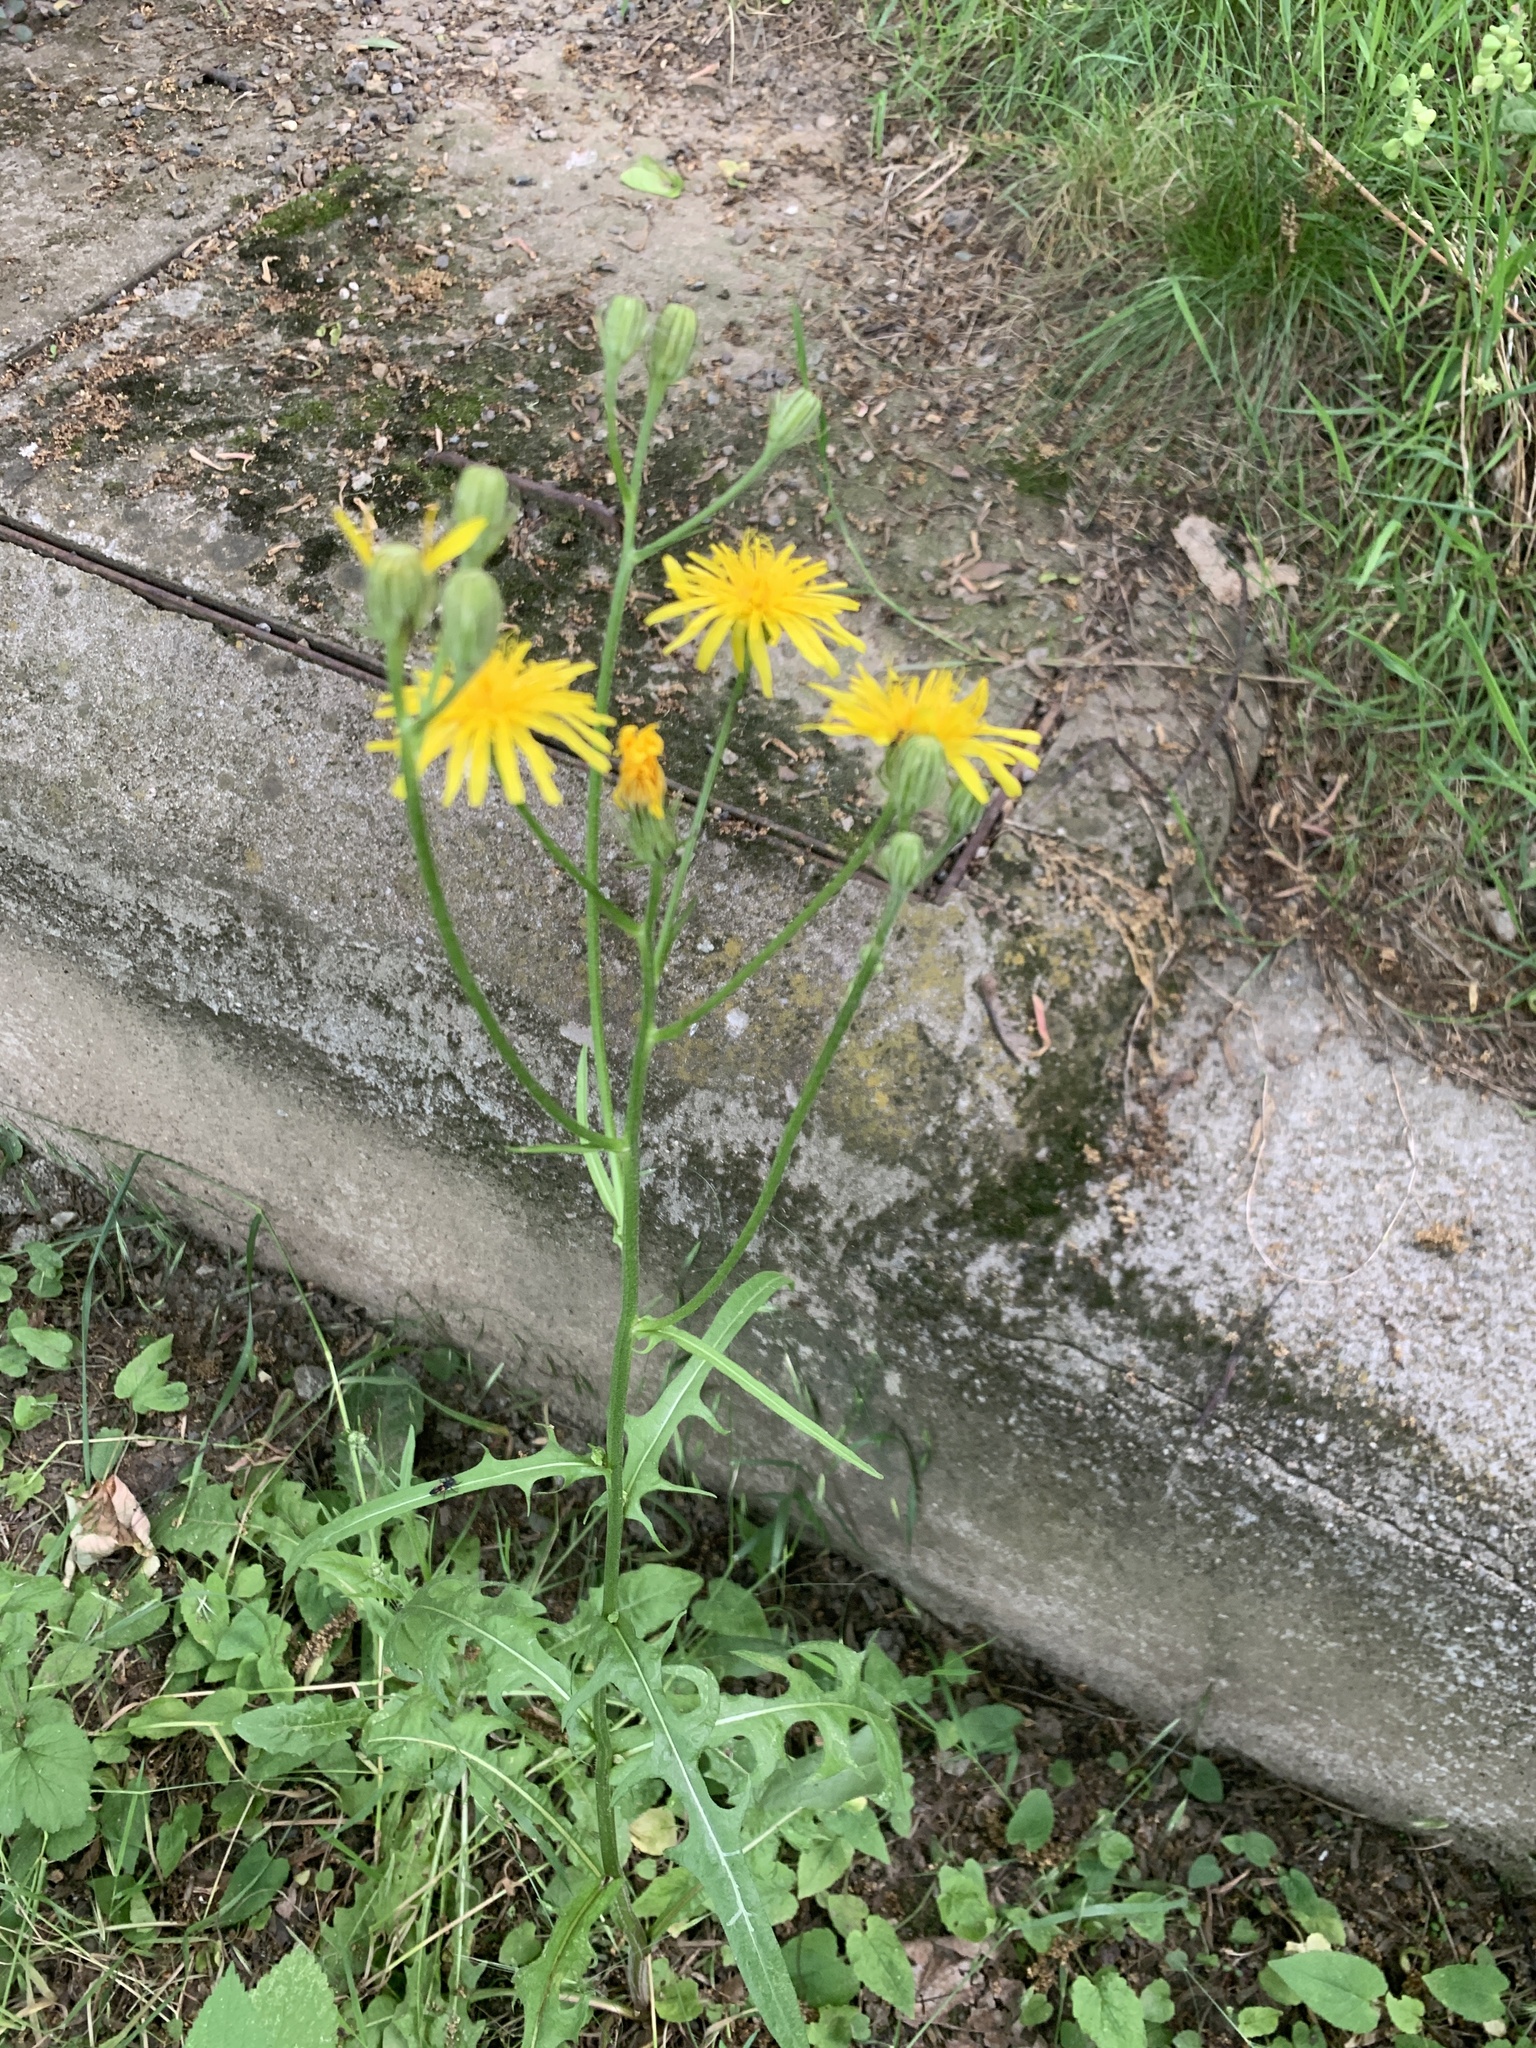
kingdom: Plantae
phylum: Tracheophyta
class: Magnoliopsida
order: Asterales
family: Asteraceae
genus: Crepis
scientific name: Crepis biennis
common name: Rough hawk's-beard
